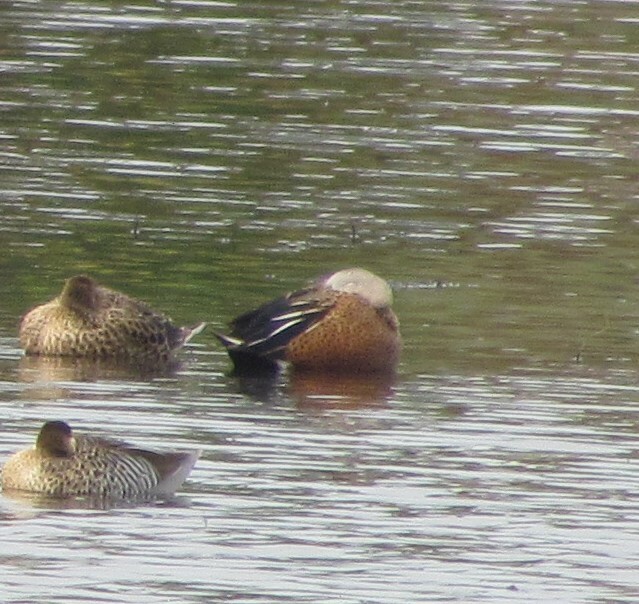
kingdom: Animalia
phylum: Chordata
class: Aves
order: Anseriformes
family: Anatidae
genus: Spatula
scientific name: Spatula platalea
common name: Red shoveler
